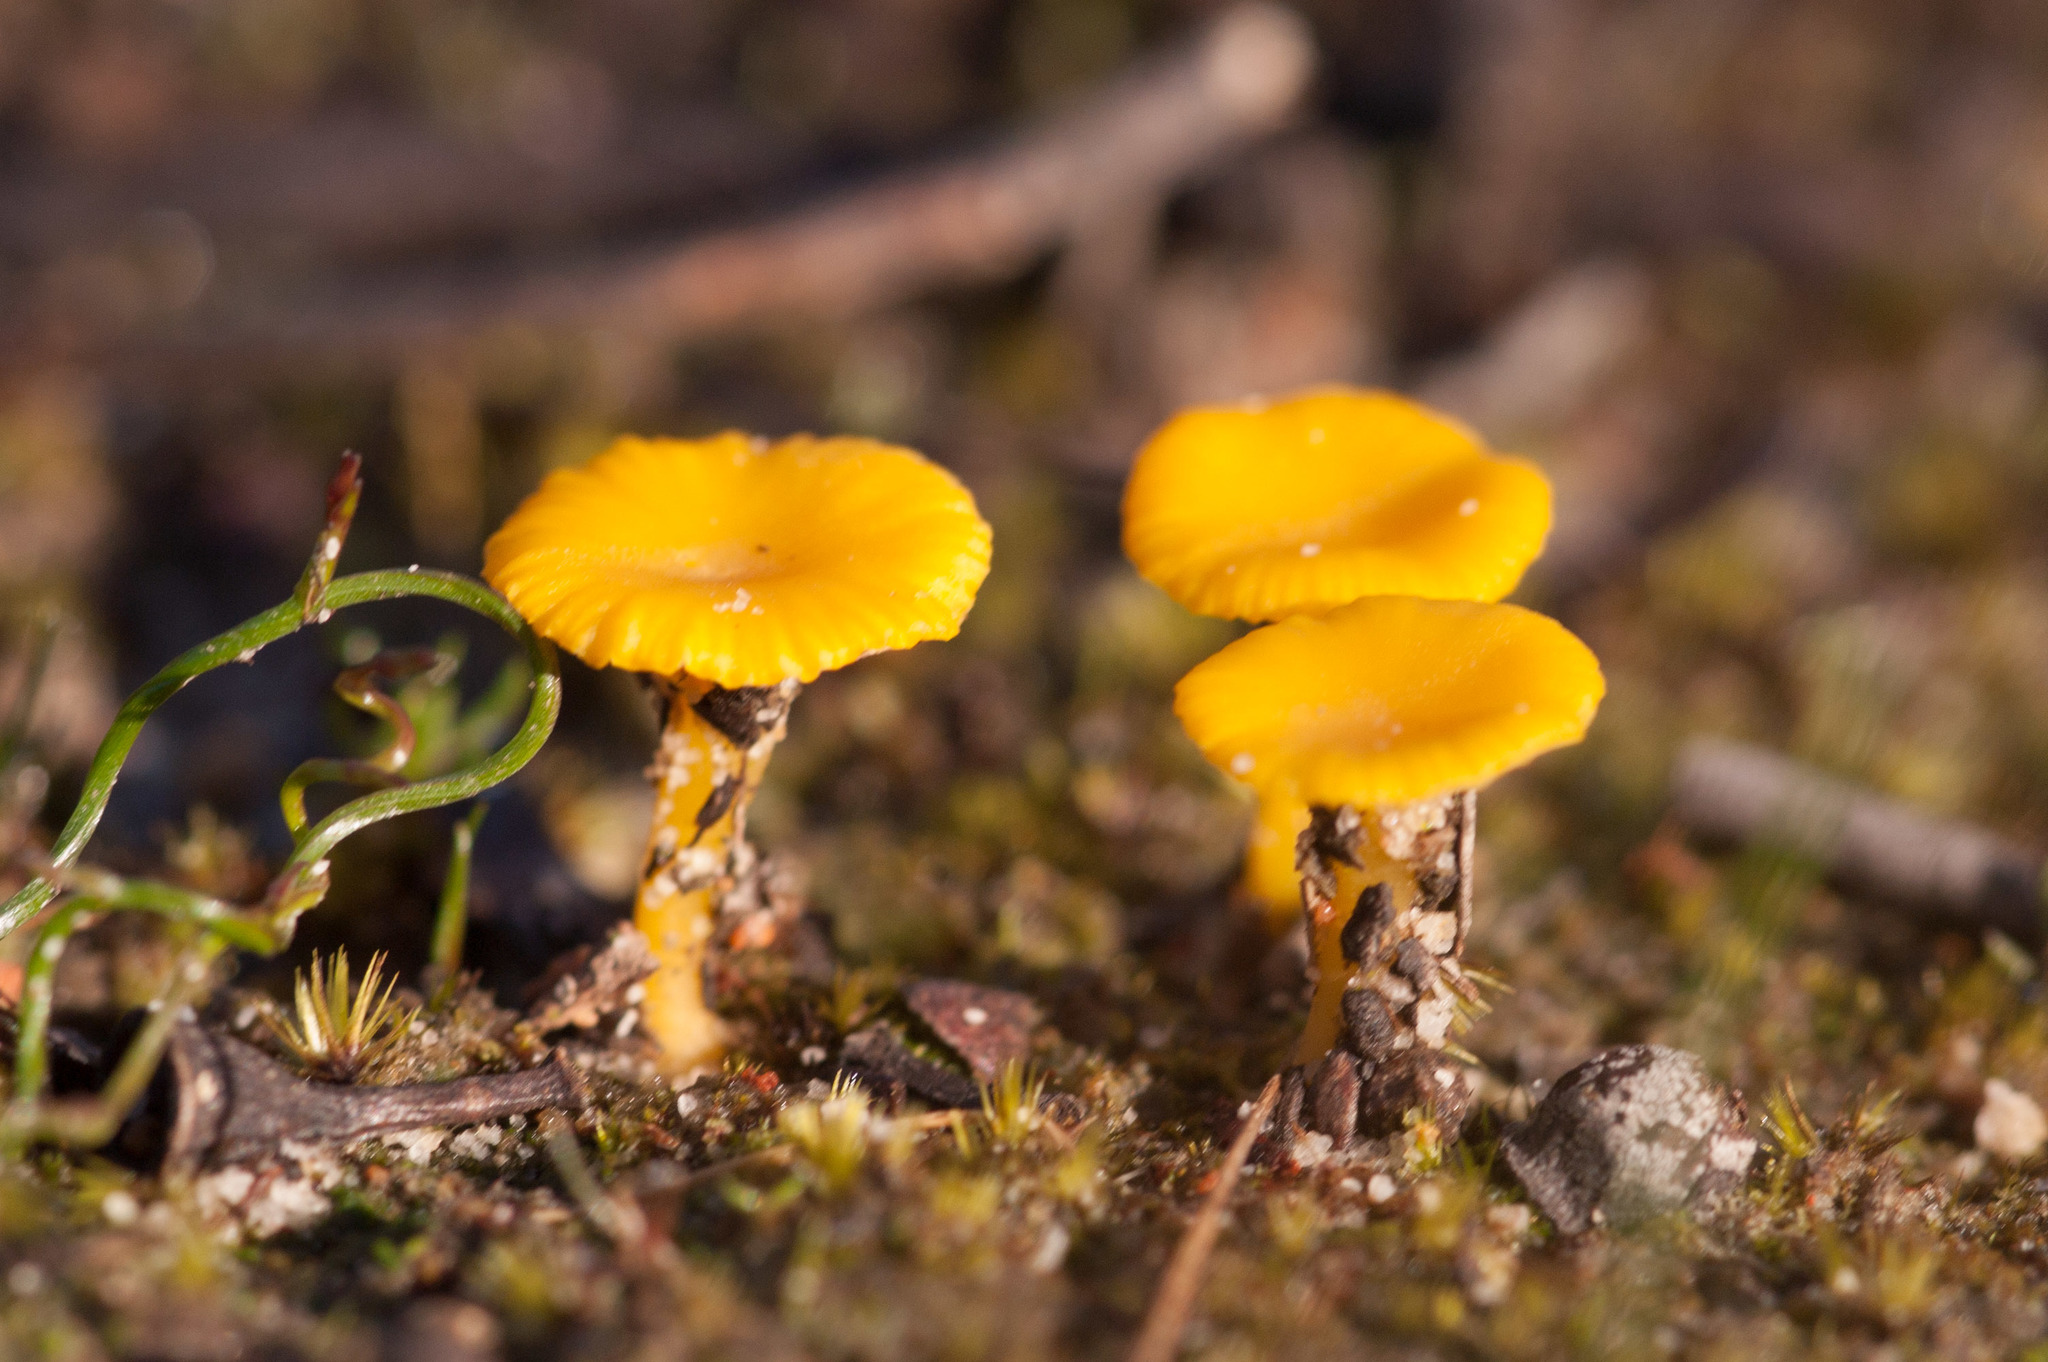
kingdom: Fungi
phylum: Basidiomycota
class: Agaricomycetes
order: Agaricales
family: Hygrophoraceae
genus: Lichenomphalia
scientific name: Lichenomphalia chromacea
